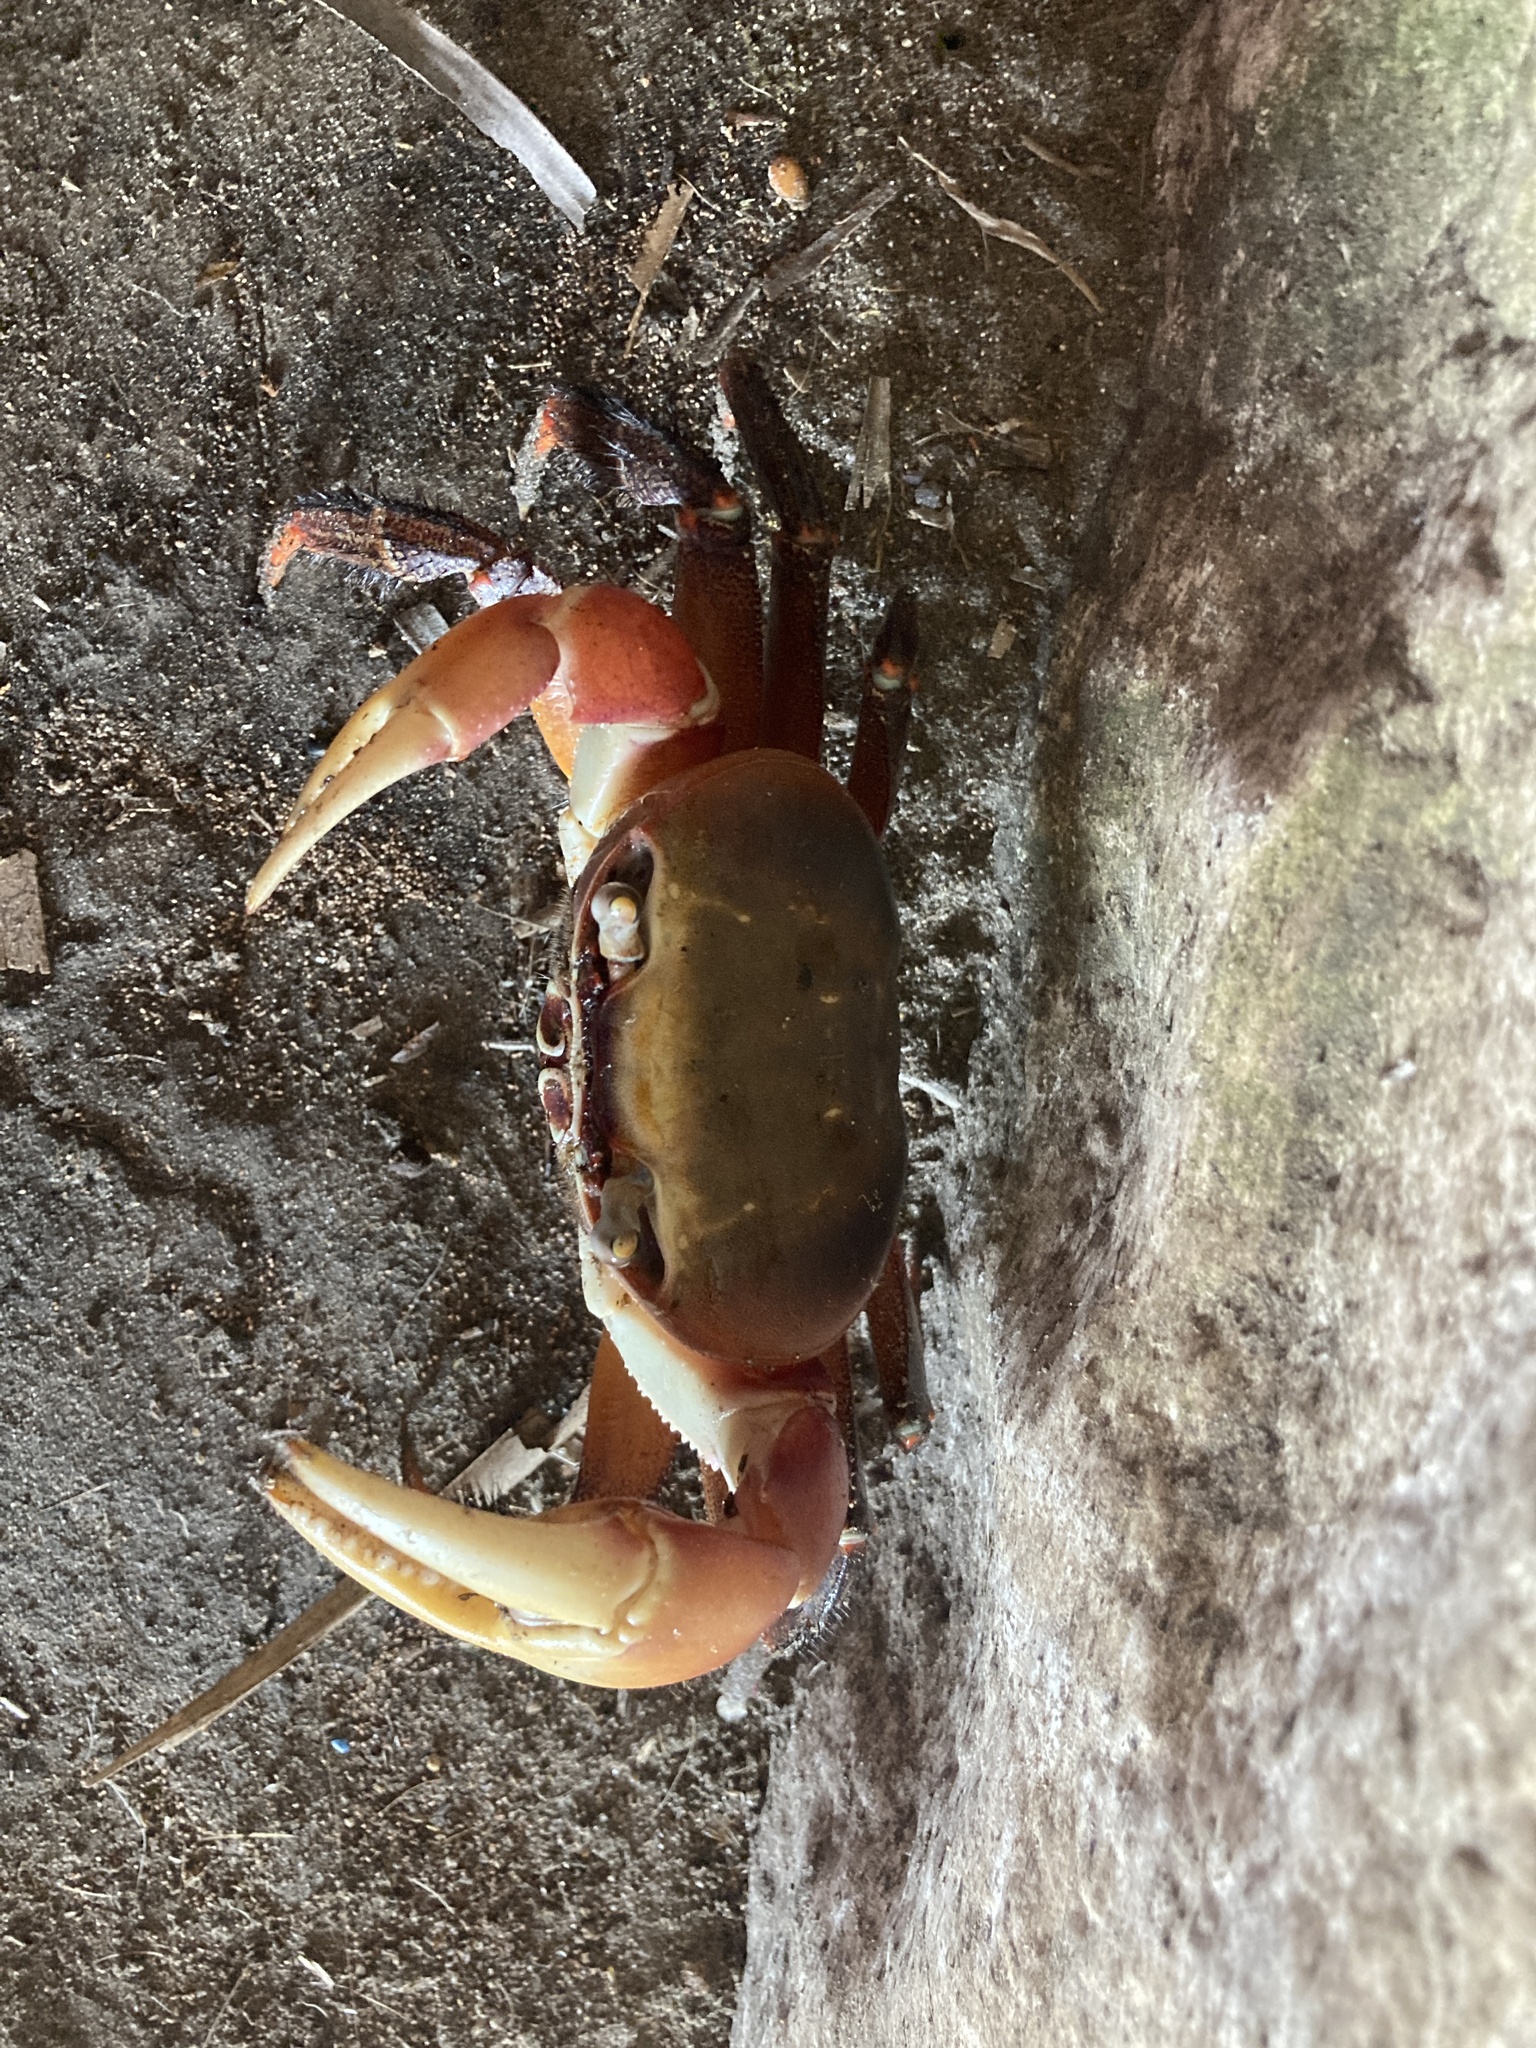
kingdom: Animalia
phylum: Arthropoda
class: Malacostraca
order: Decapoda
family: Gecarcinidae
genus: Cardisoma
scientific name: Cardisoma carnifex
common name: Brown land crab
